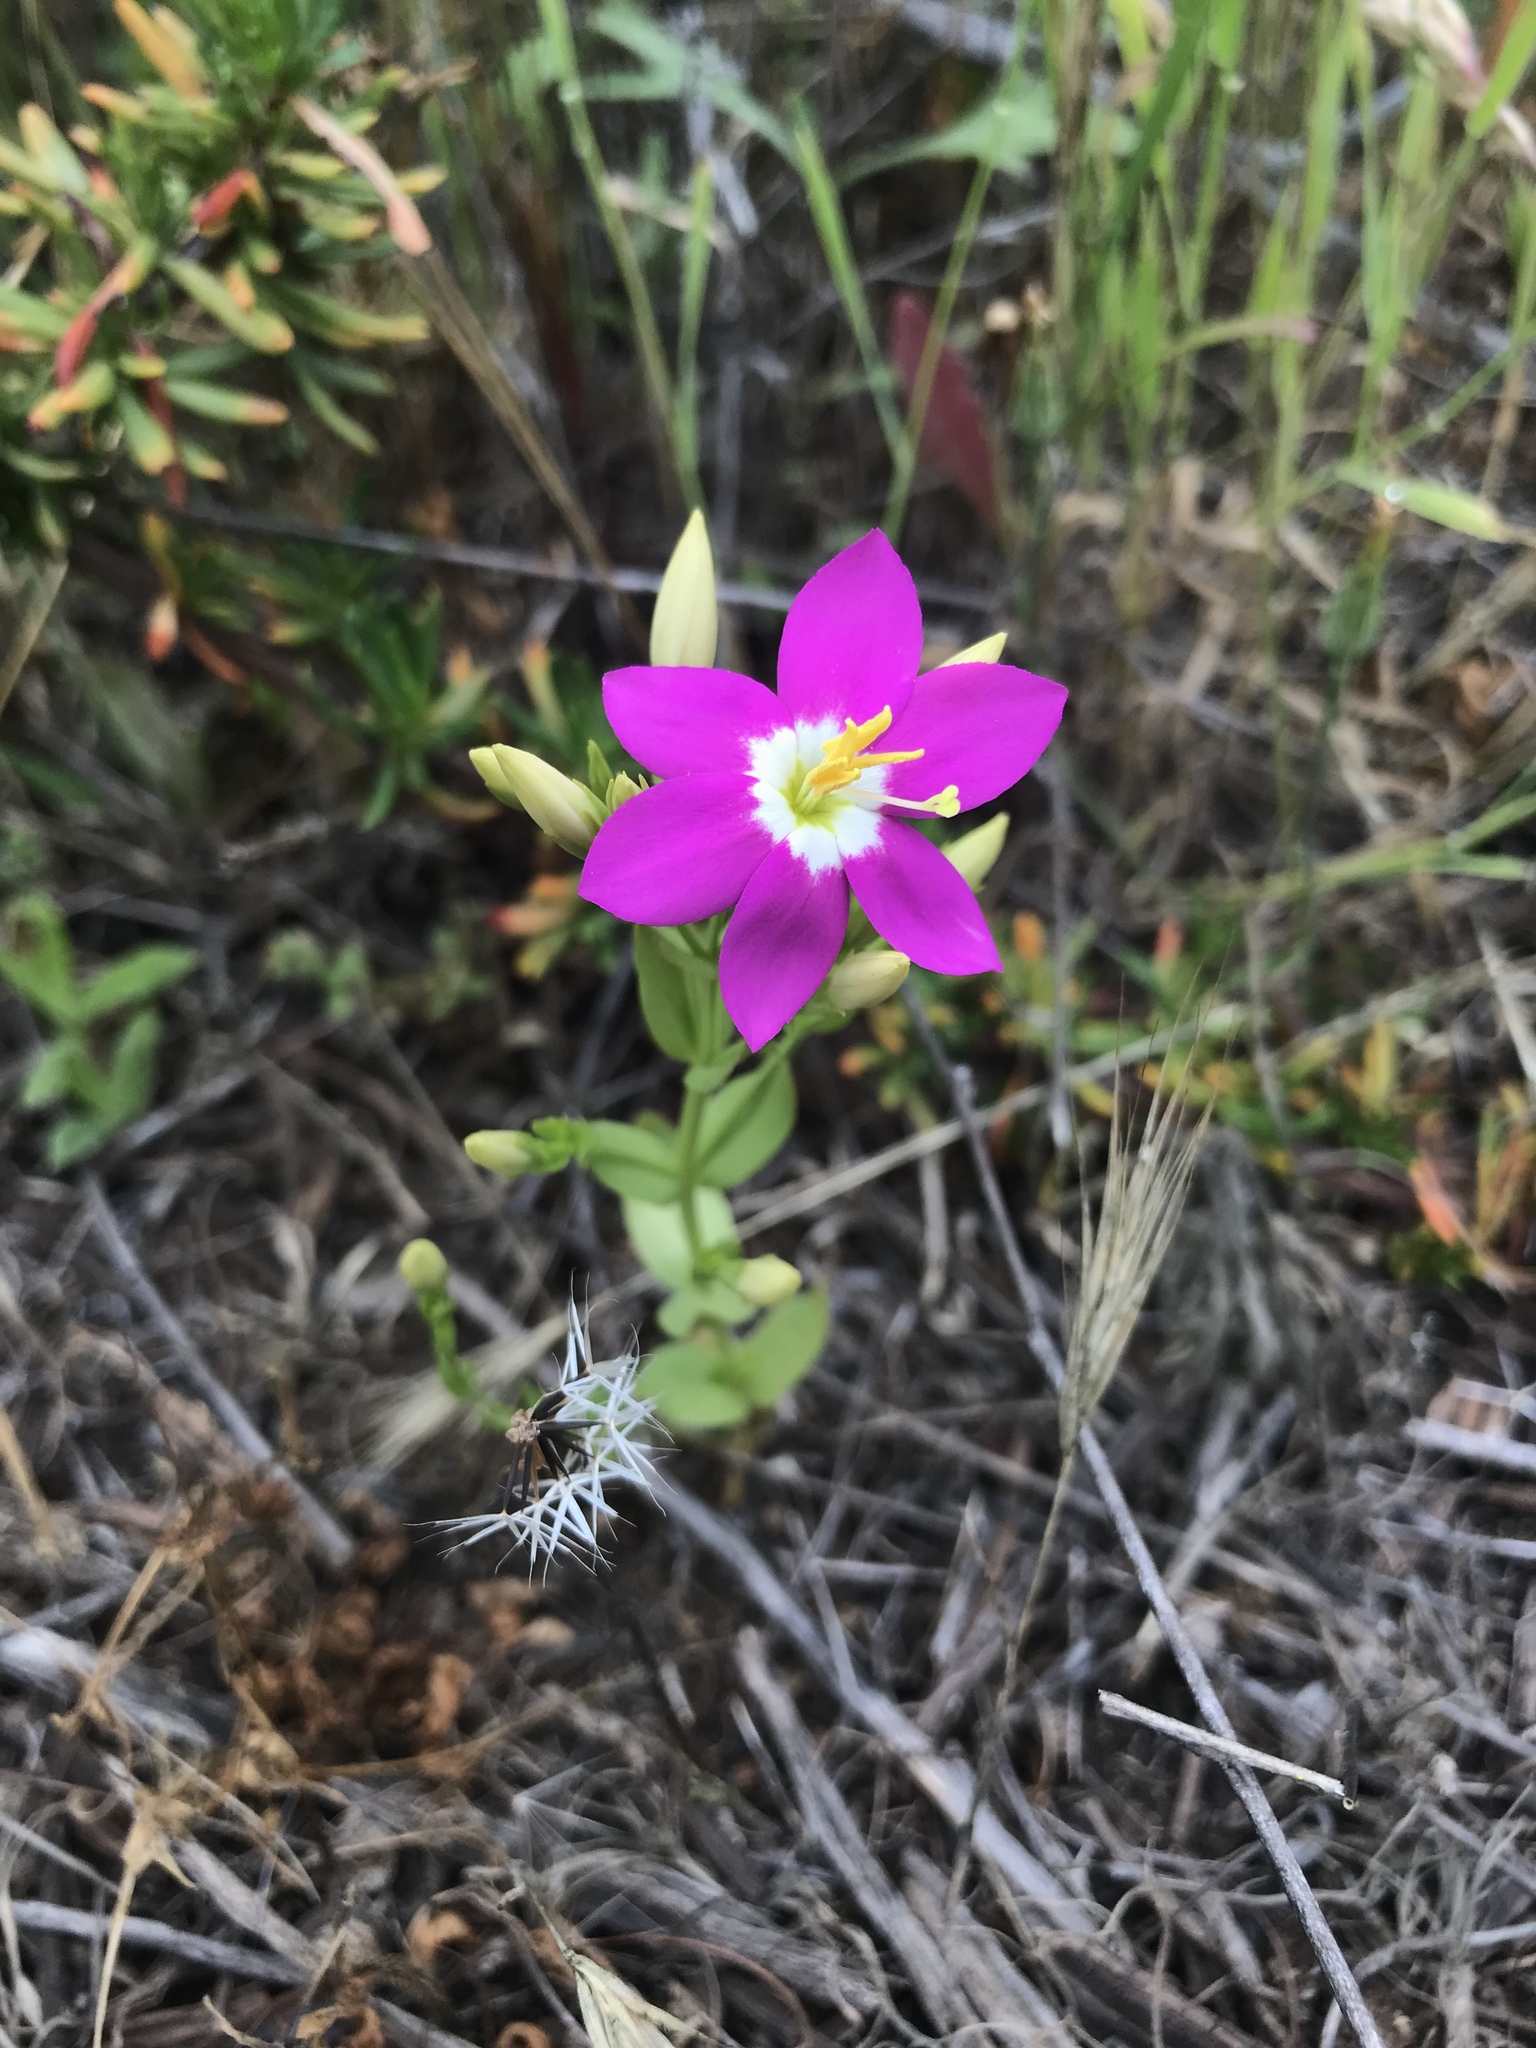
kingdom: Plantae
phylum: Tracheophyta
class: Magnoliopsida
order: Gentianales
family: Gentianaceae
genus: Zeltnera
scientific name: Zeltnera venusta
